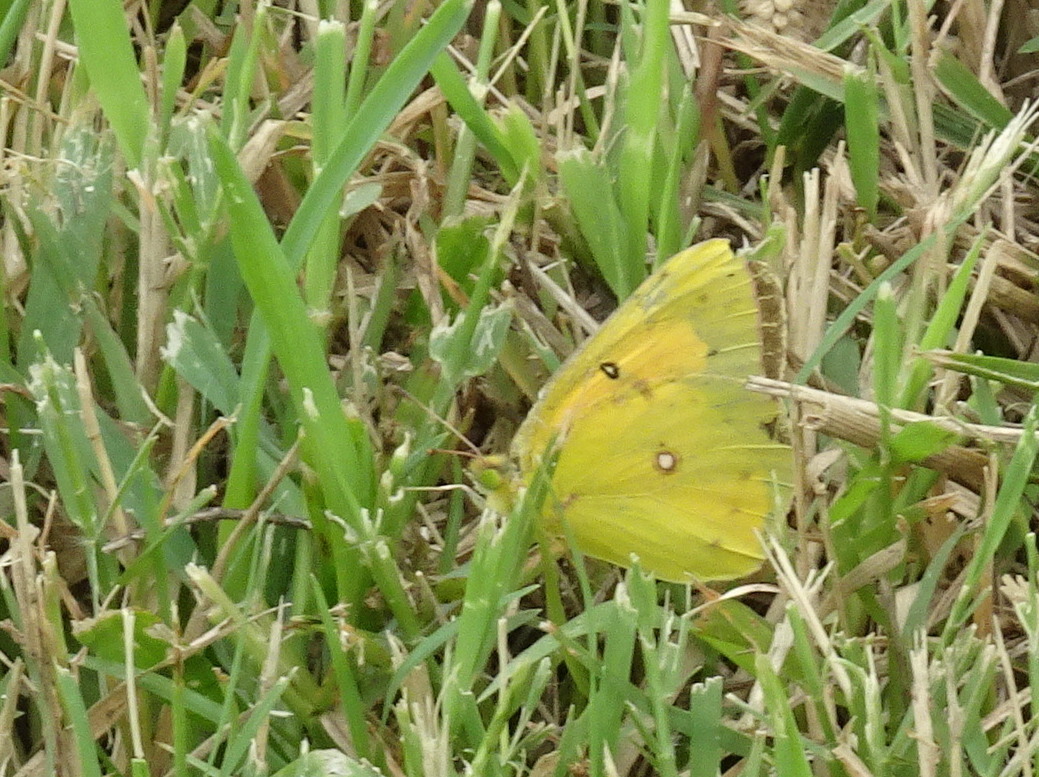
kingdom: Animalia
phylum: Arthropoda
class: Insecta
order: Lepidoptera
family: Pieridae
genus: Colias
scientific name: Colias eurytheme
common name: Alfalfa butterfly
